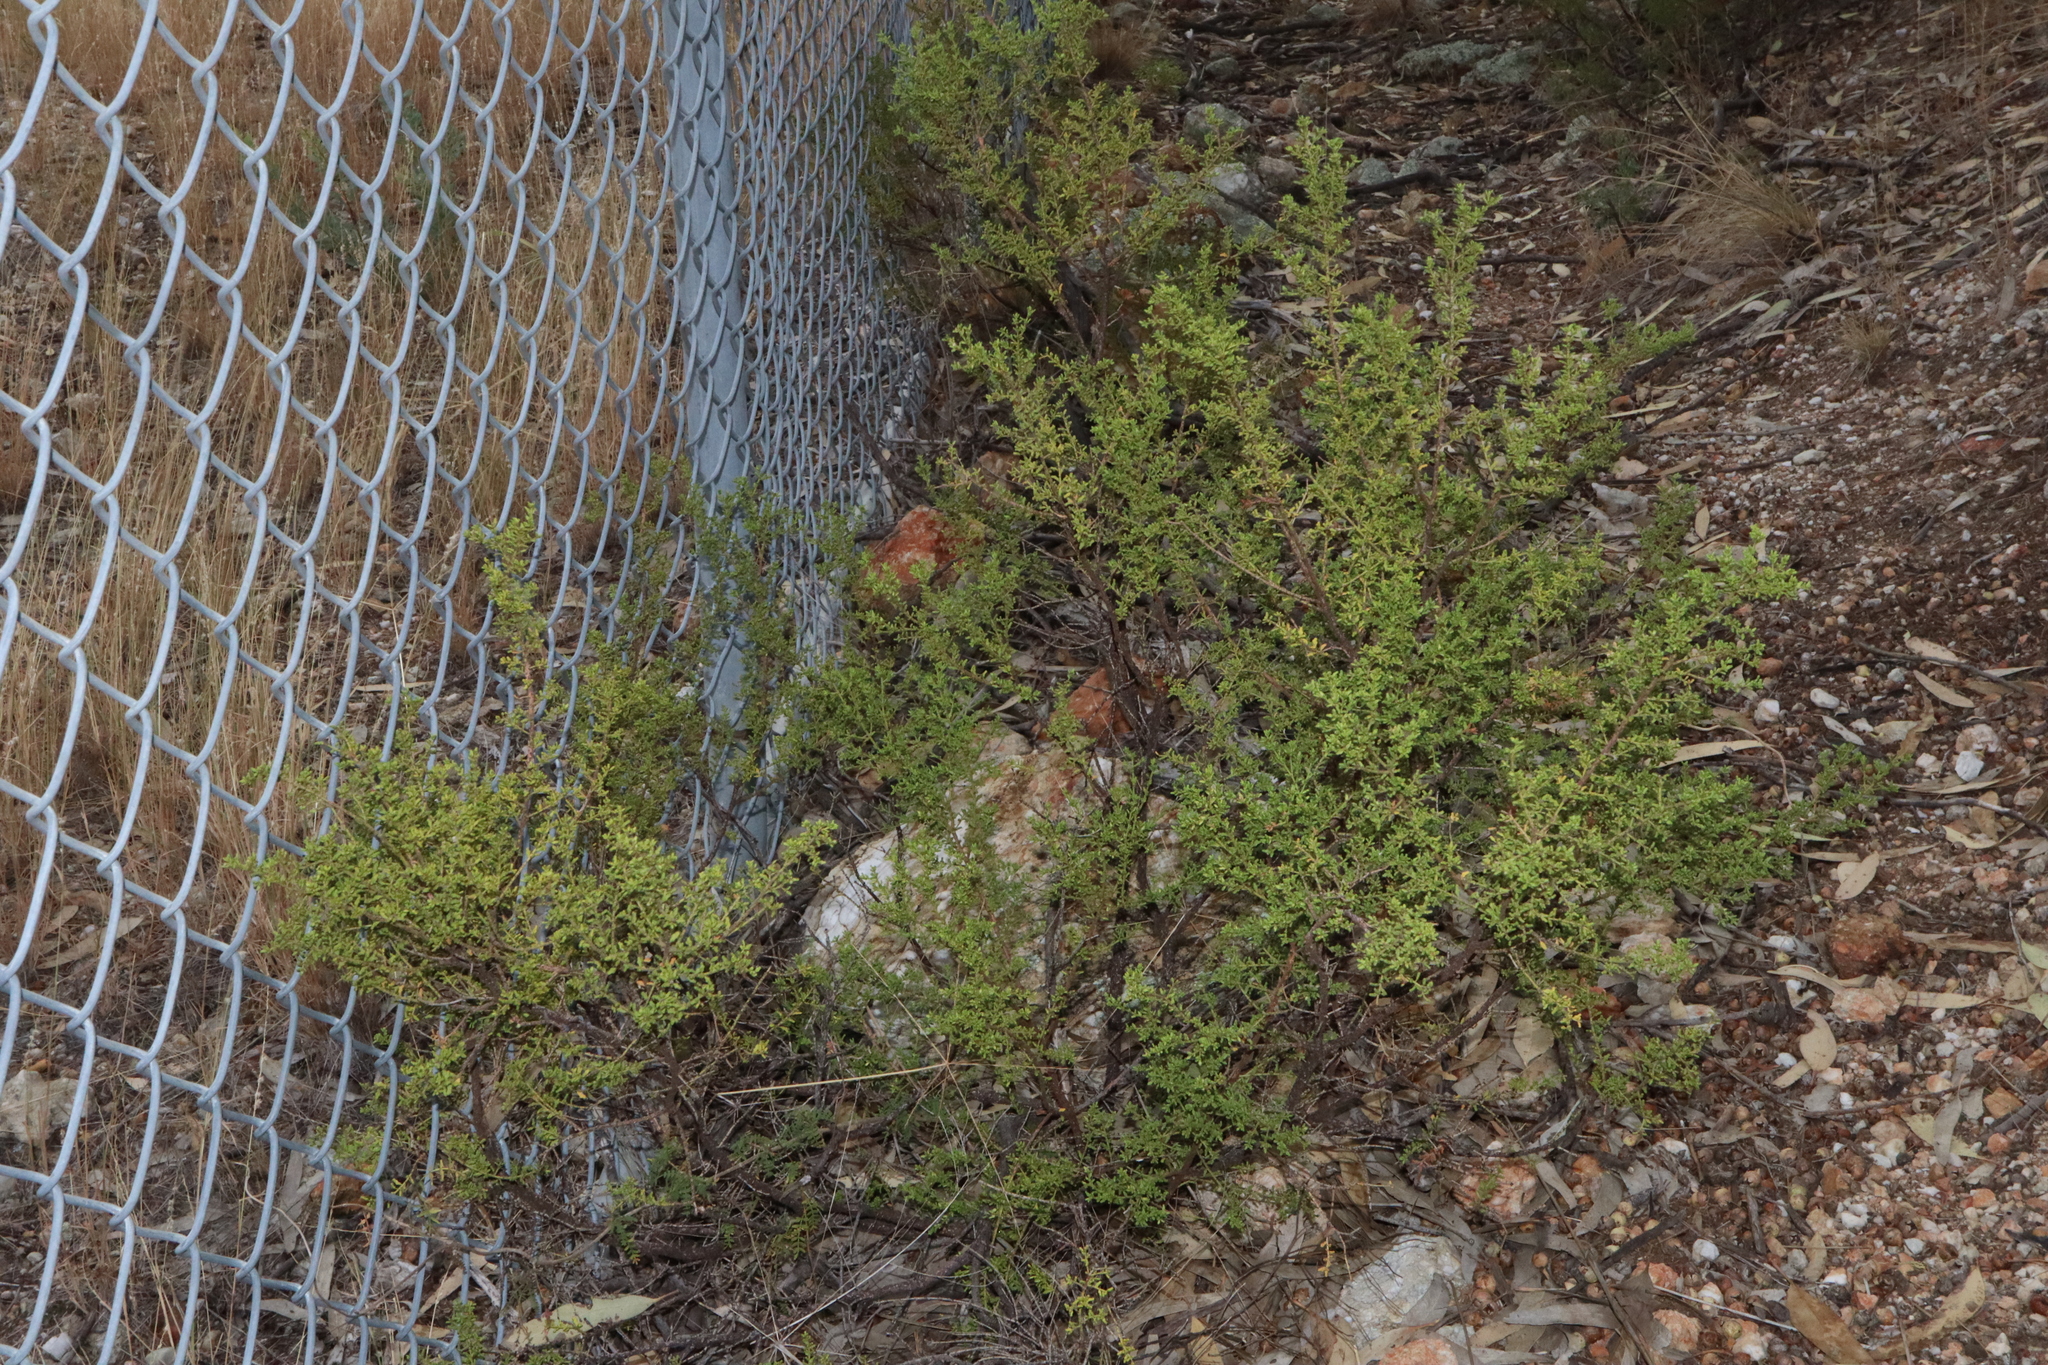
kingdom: Plantae
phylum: Tracheophyta
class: Magnoliopsida
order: Sapindales
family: Rutaceae
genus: Philotheca
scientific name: Philotheca difformis
